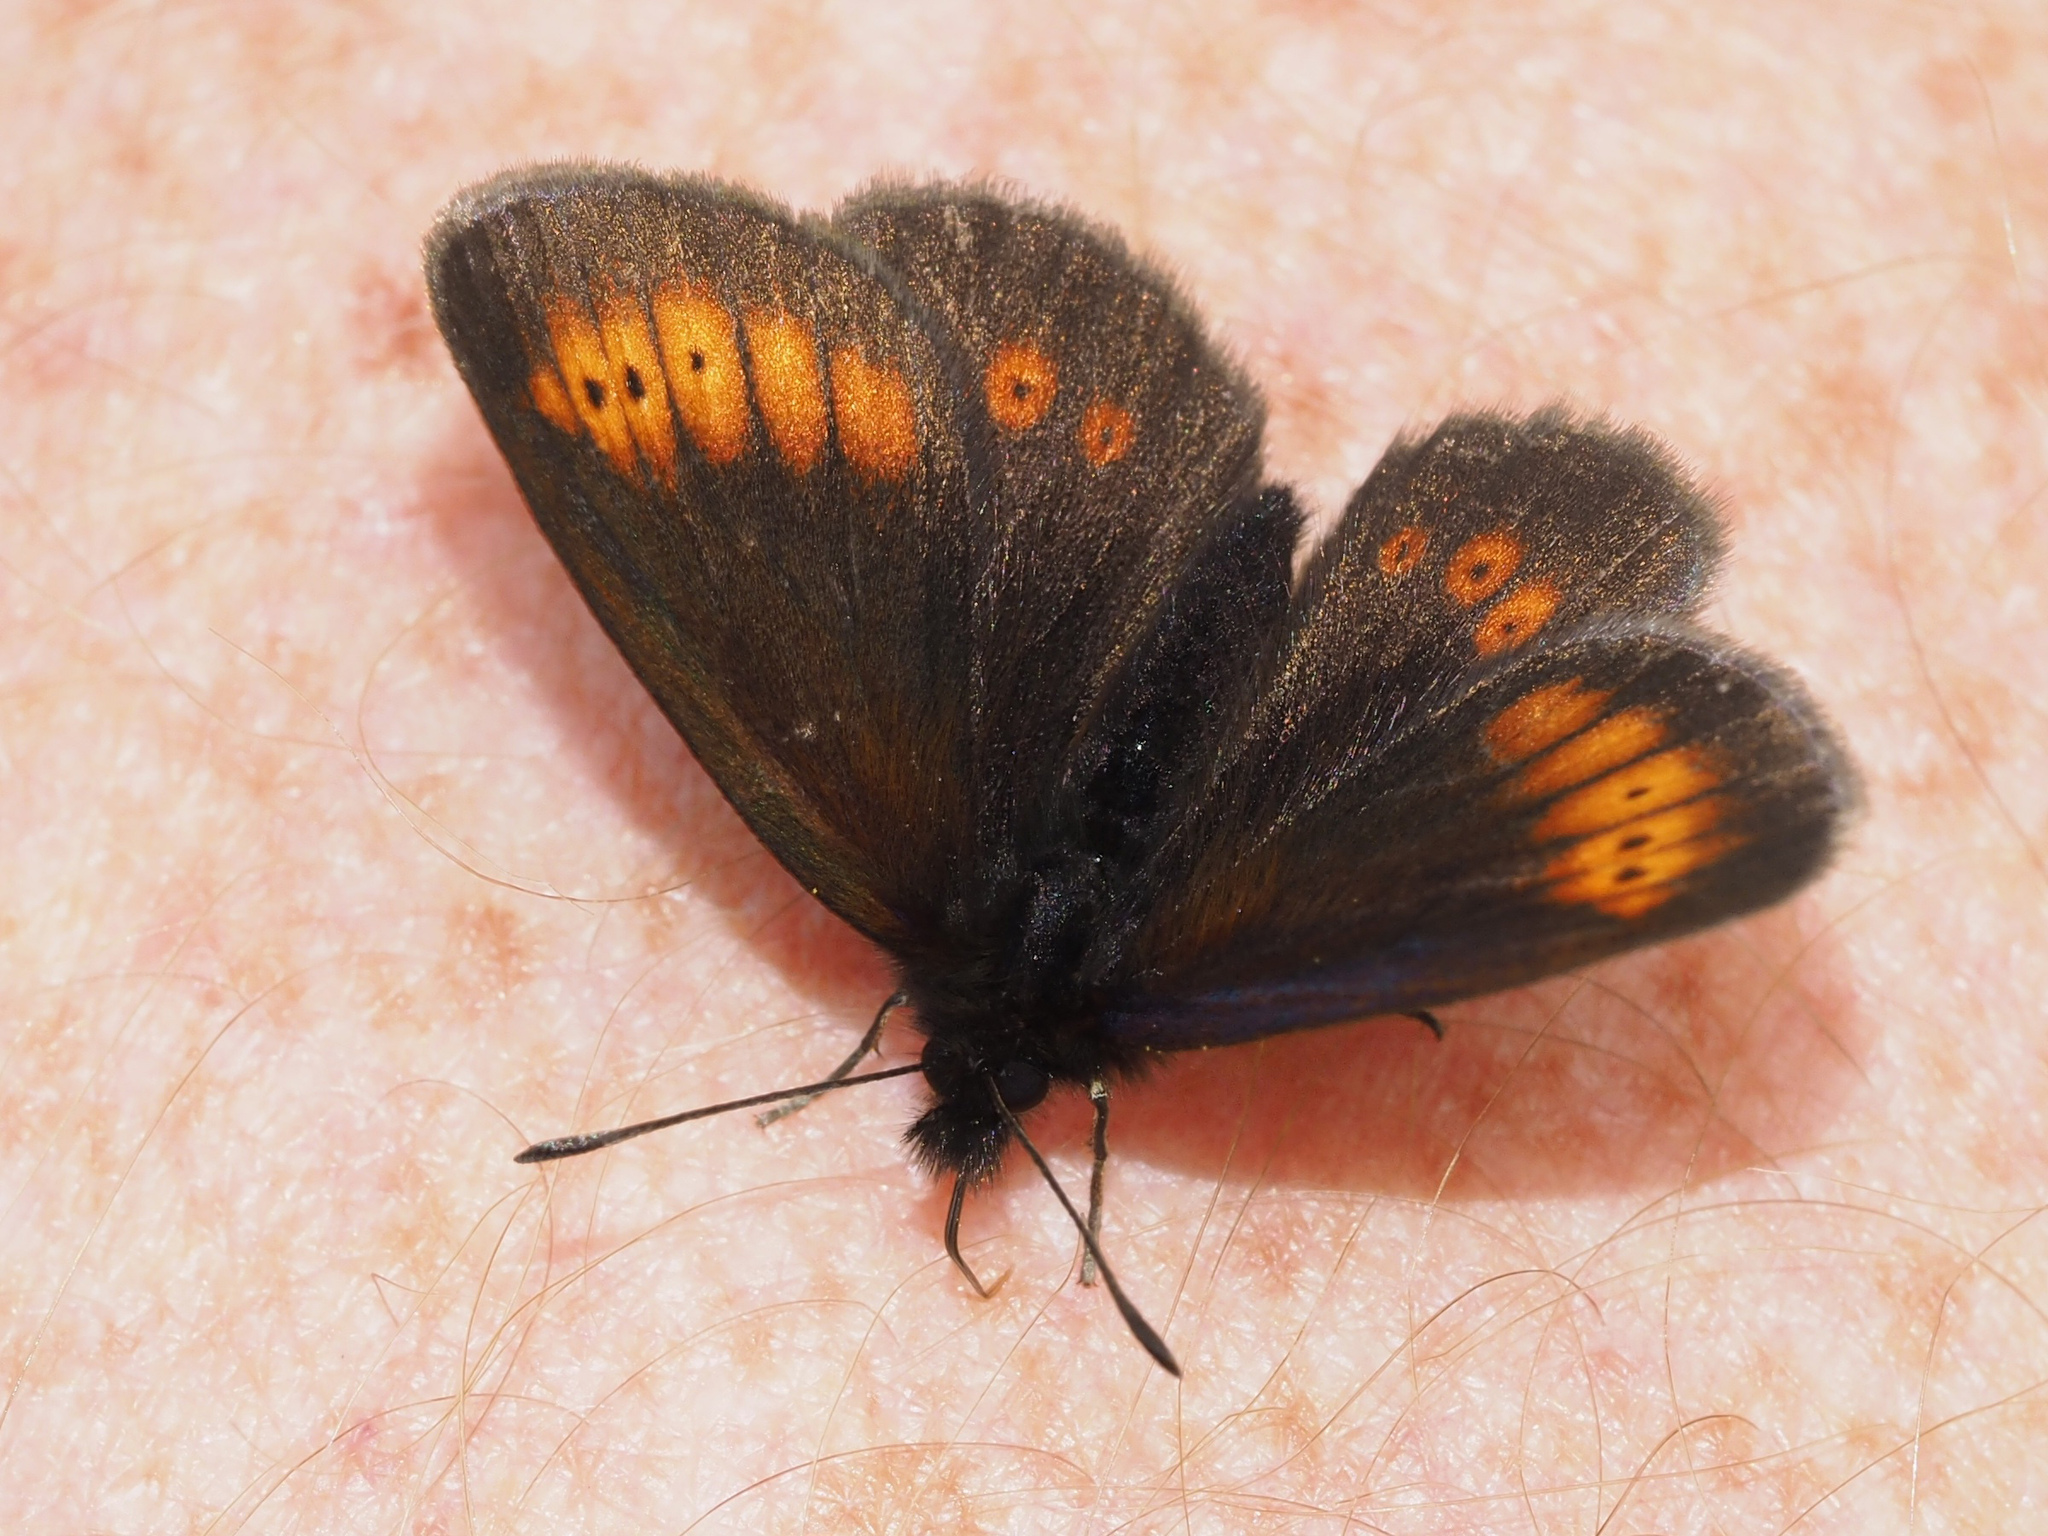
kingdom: Animalia
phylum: Arthropoda
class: Insecta
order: Lepidoptera
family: Nymphalidae
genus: Erebia
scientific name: Erebia melampus
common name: Lesser mountain ringlet
